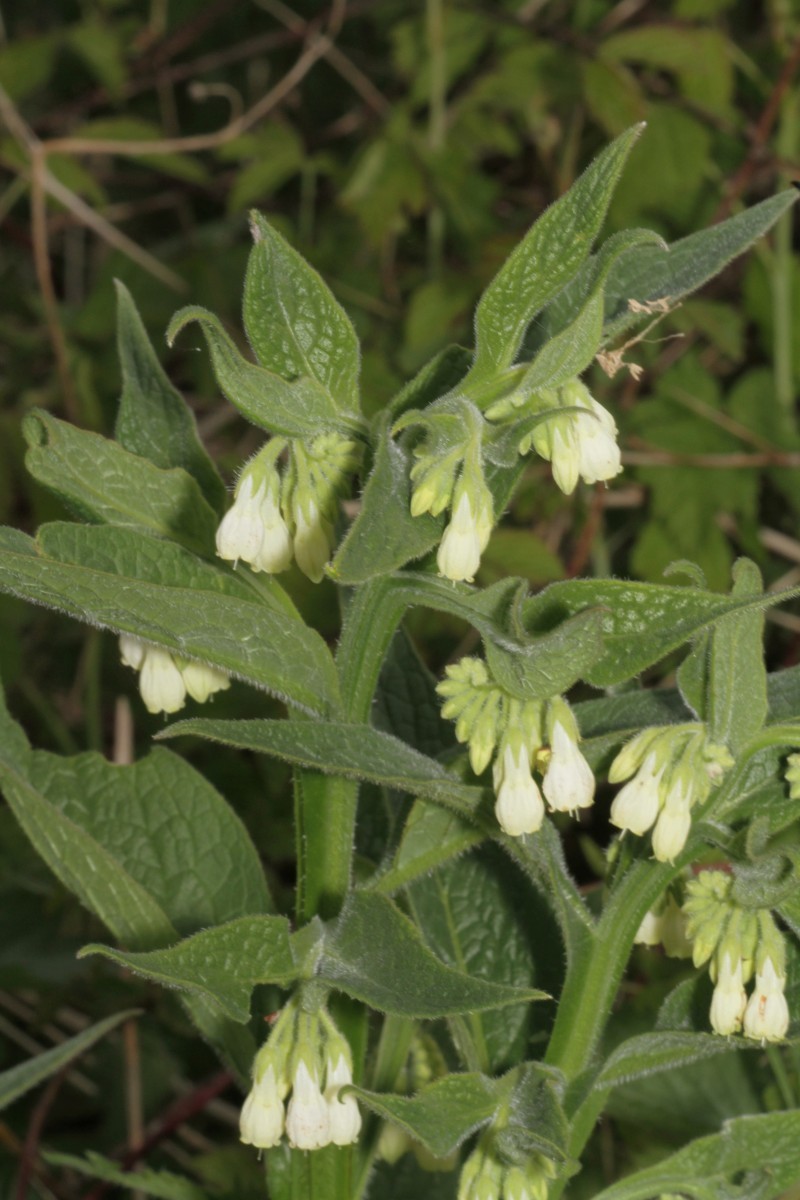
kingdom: Plantae
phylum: Tracheophyta
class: Magnoliopsida
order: Boraginales
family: Boraginaceae
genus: Symphytum
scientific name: Symphytum officinale
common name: Common comfrey
